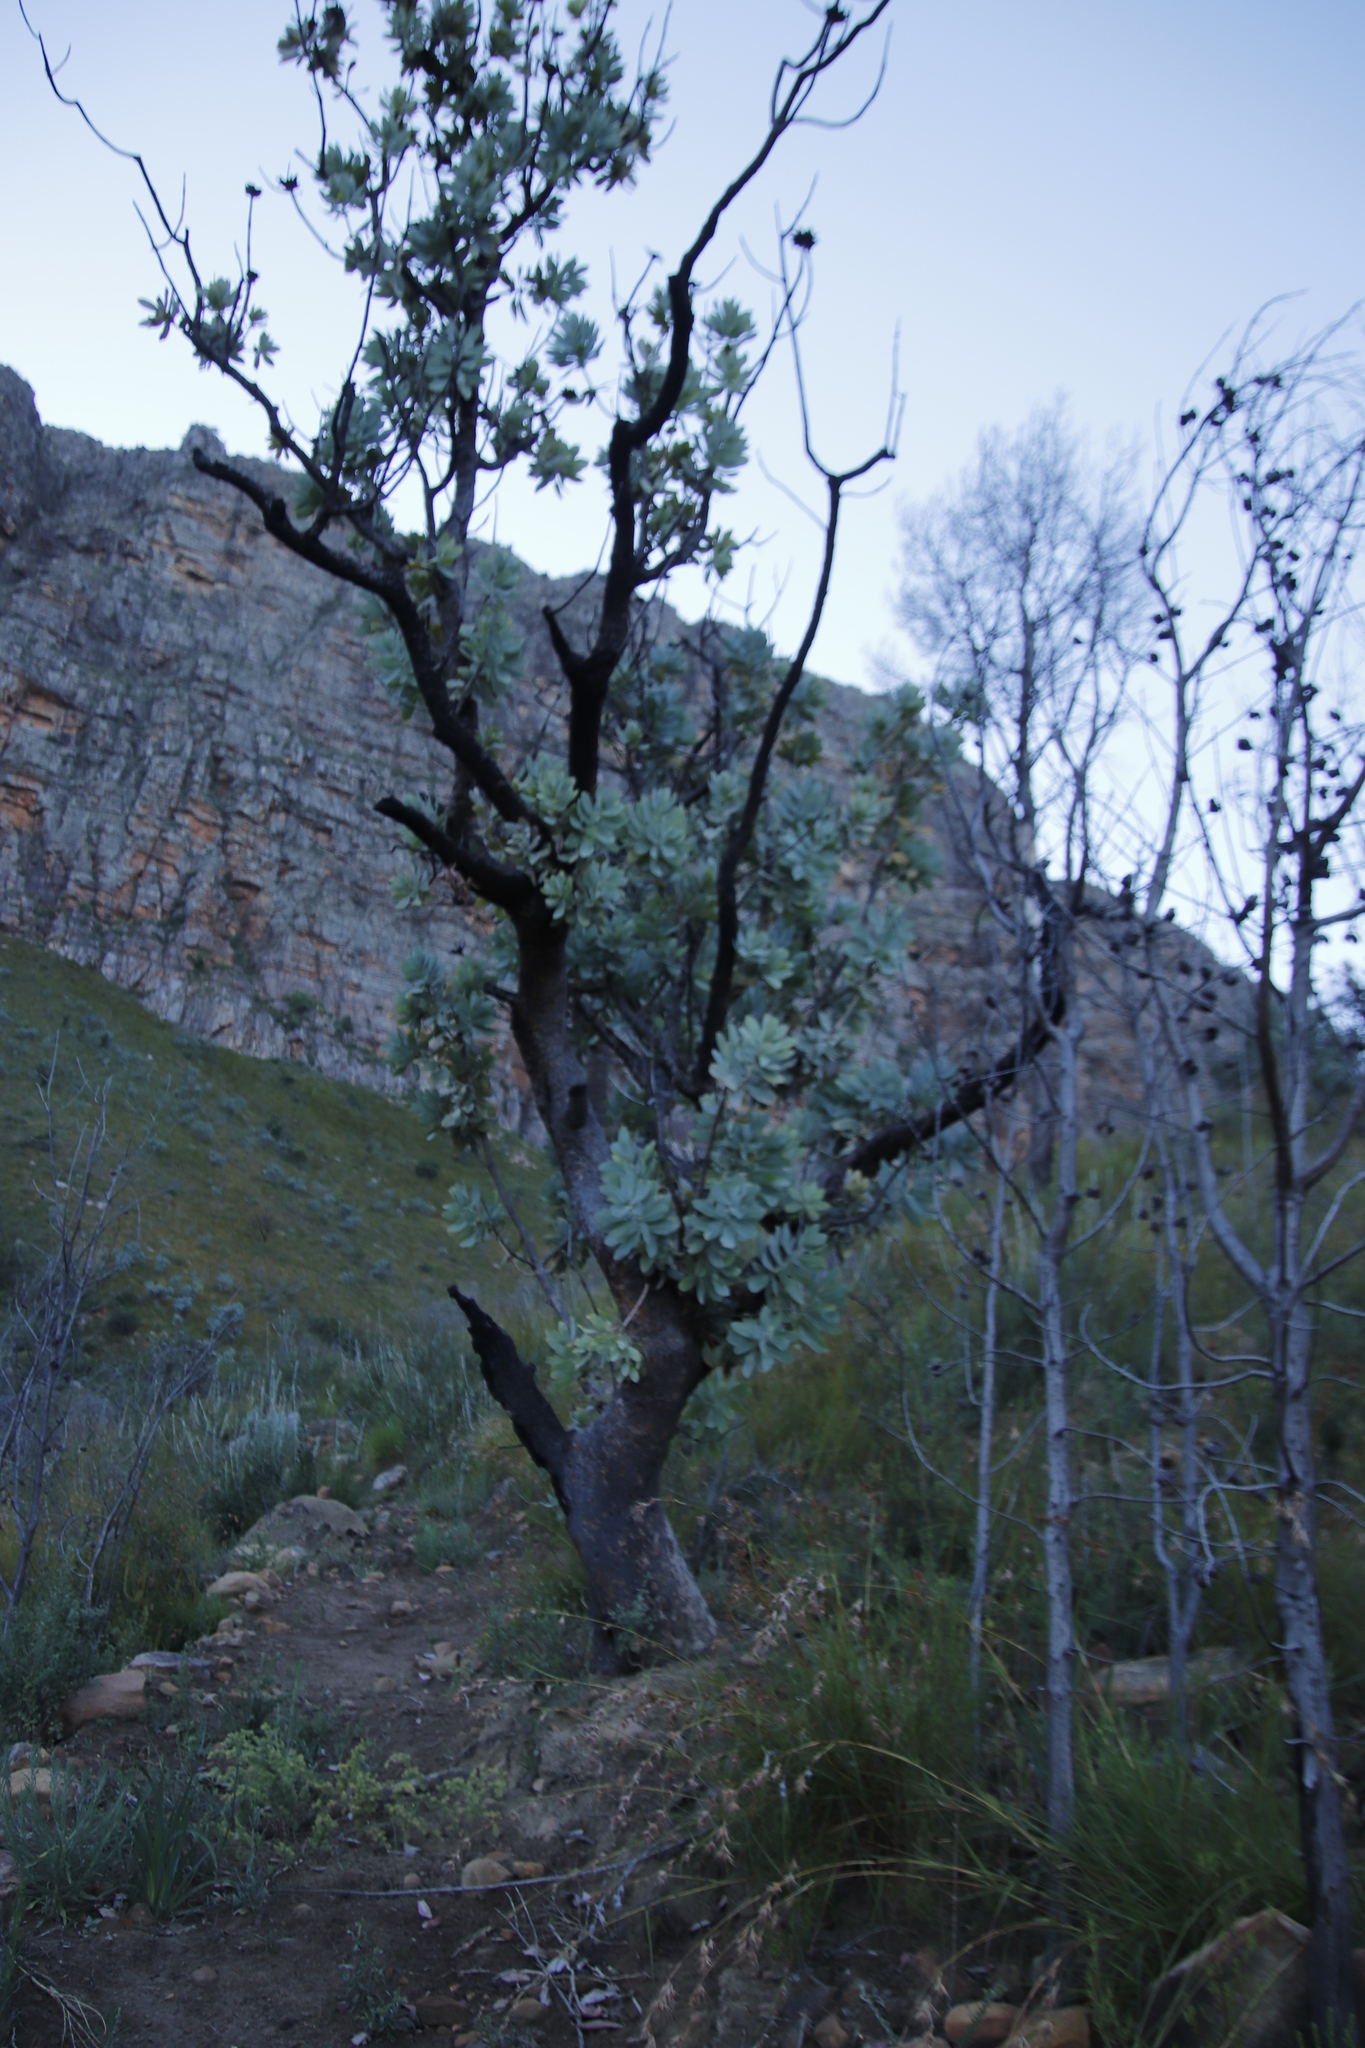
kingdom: Plantae
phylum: Tracheophyta
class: Magnoliopsida
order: Proteales
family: Proteaceae
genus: Protea
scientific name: Protea nitida
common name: Tree protea
